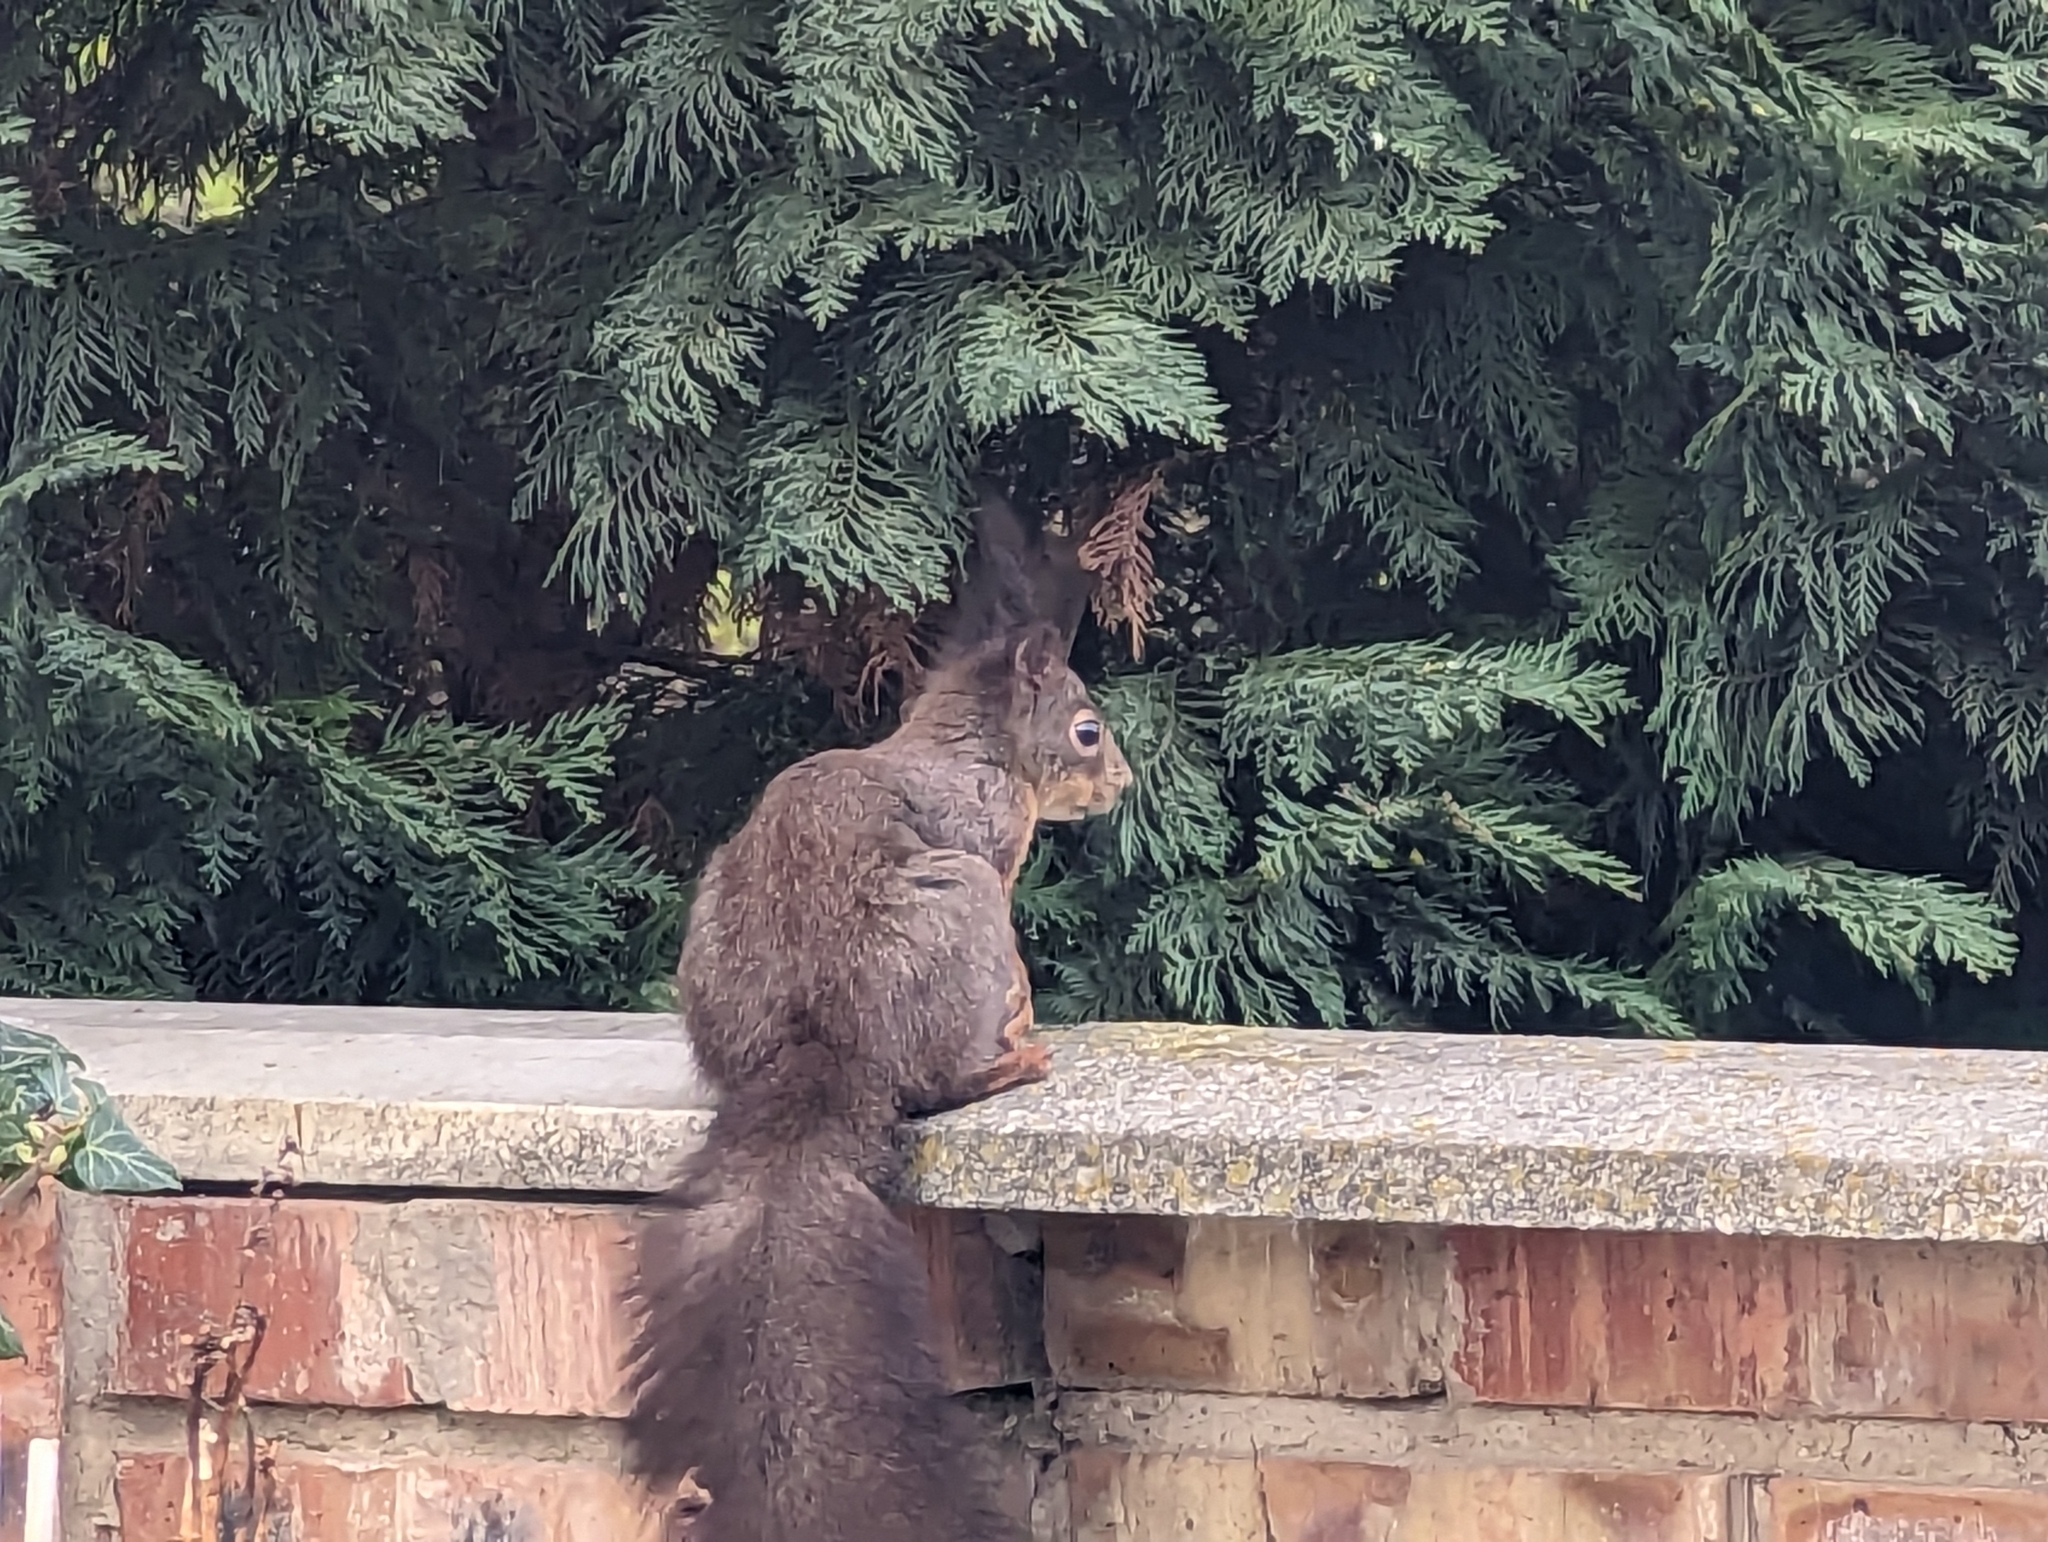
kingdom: Animalia
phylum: Chordata
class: Mammalia
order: Rodentia
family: Sciuridae
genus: Sciurus
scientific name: Sciurus vulgaris
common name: Eurasian red squirrel
